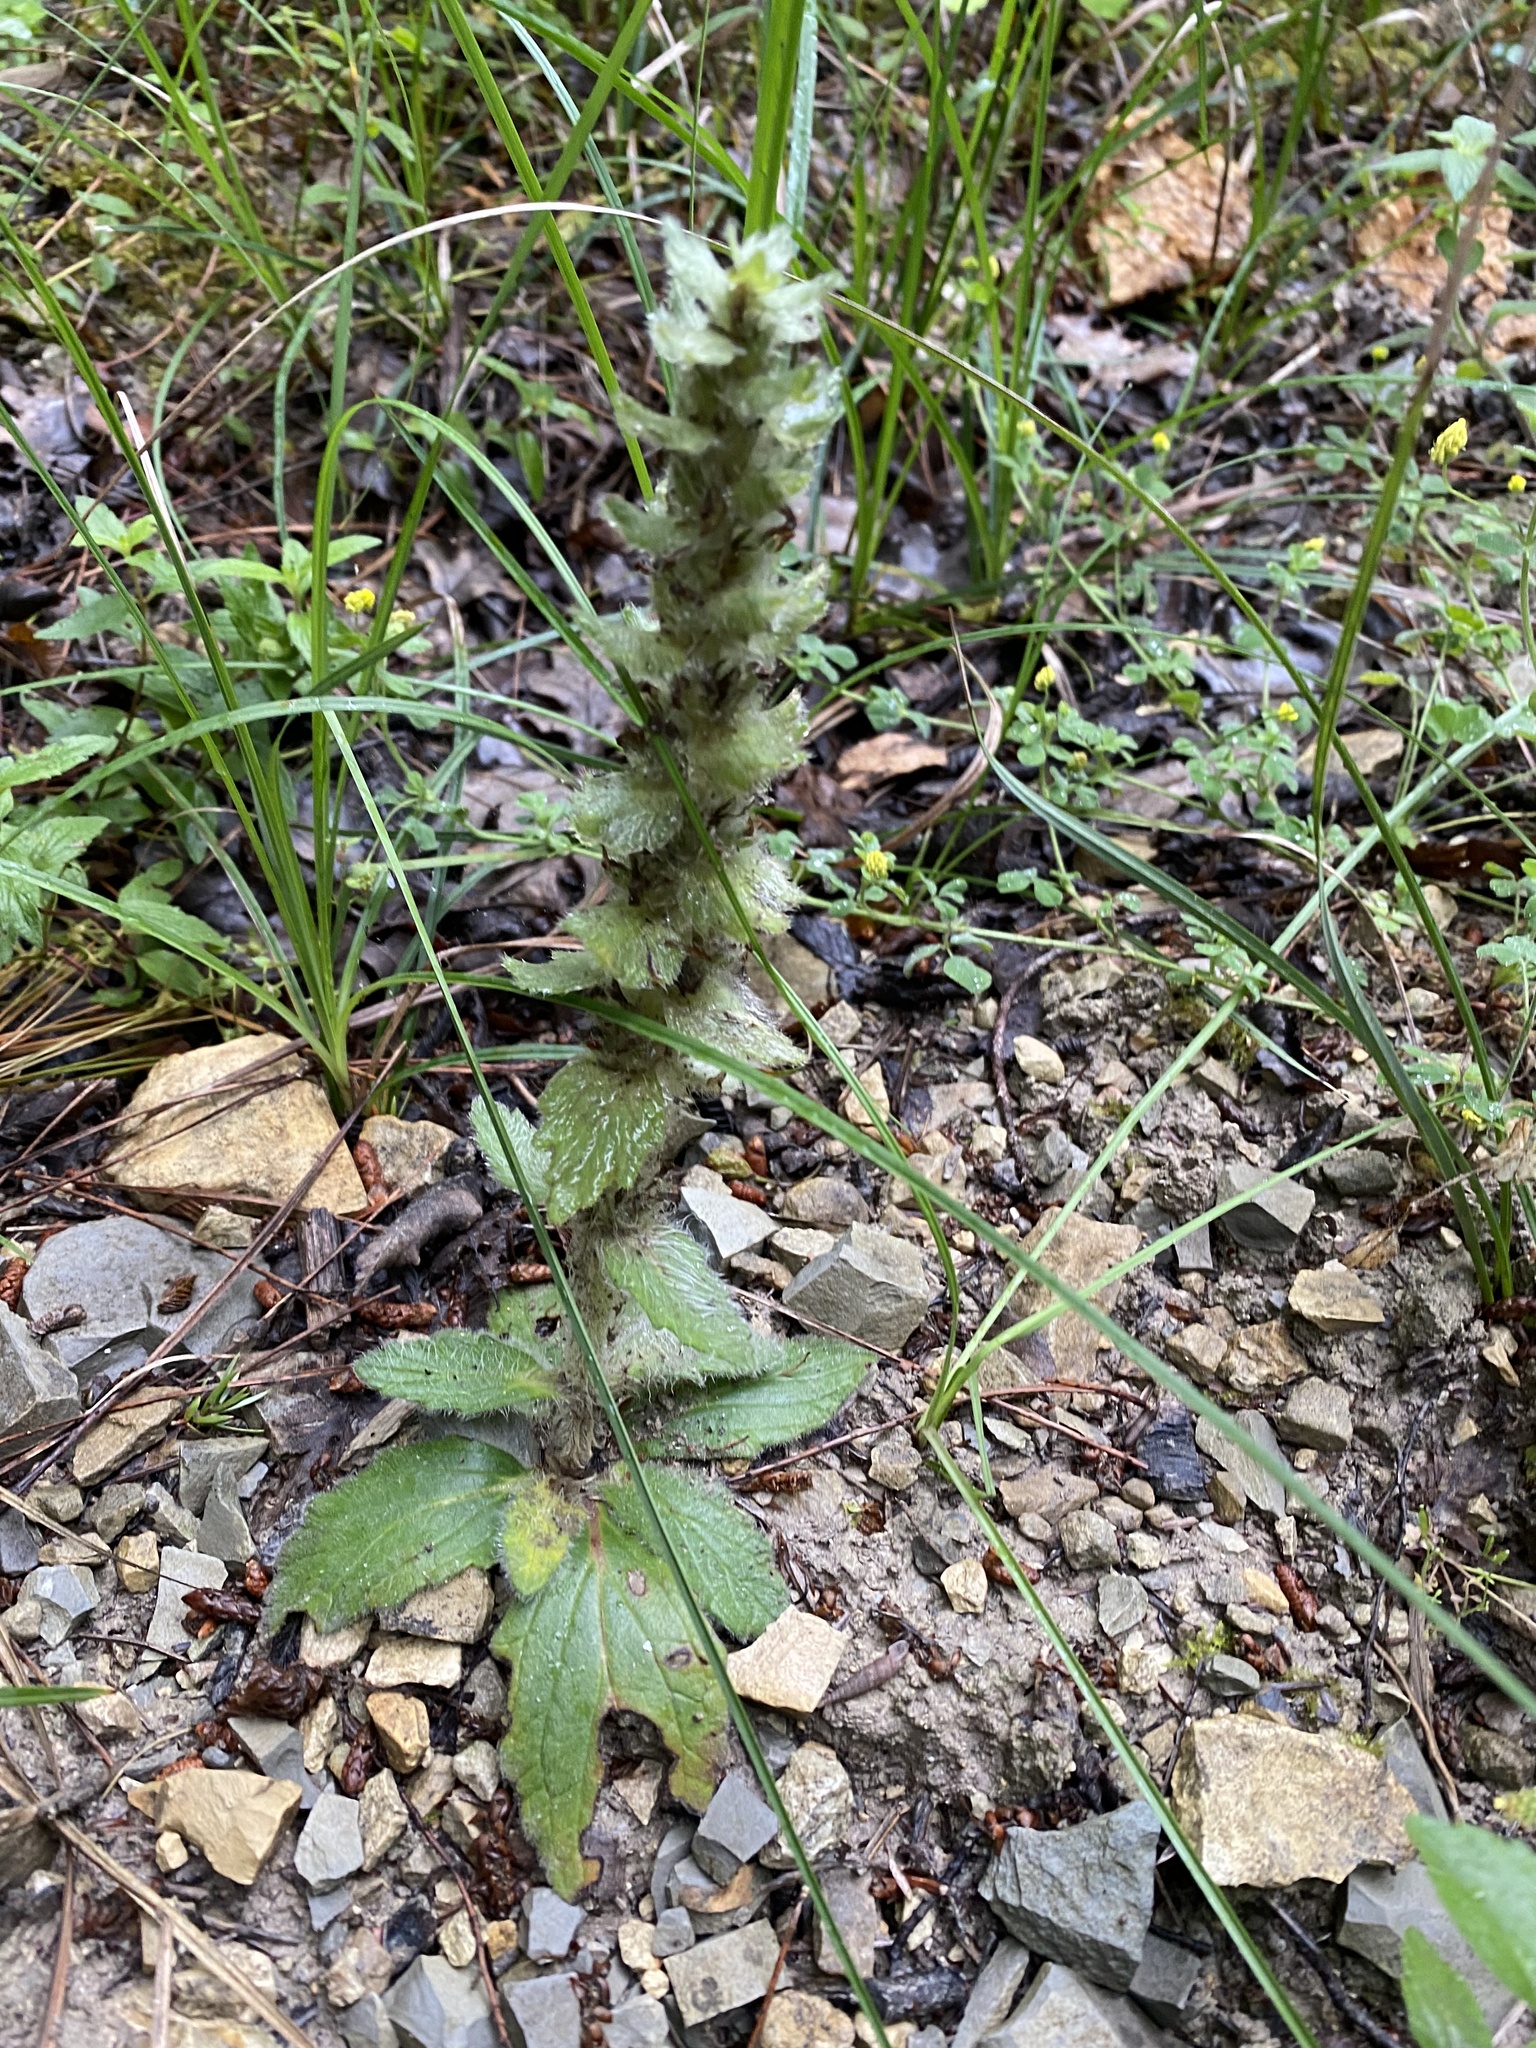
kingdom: Plantae
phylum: Tracheophyta
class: Magnoliopsida
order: Lamiales
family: Lamiaceae
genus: Ajuga
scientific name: Ajuga orientalis
